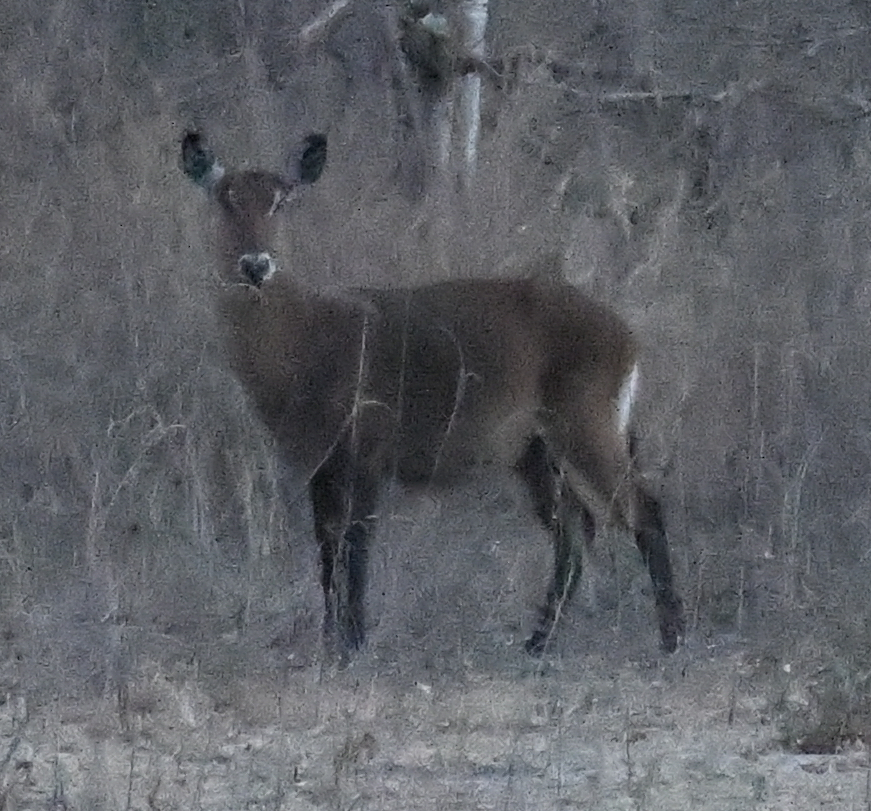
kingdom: Animalia
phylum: Chordata
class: Mammalia
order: Artiodactyla
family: Bovidae
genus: Kobus
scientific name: Kobus ellipsiprymnus
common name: Waterbuck
